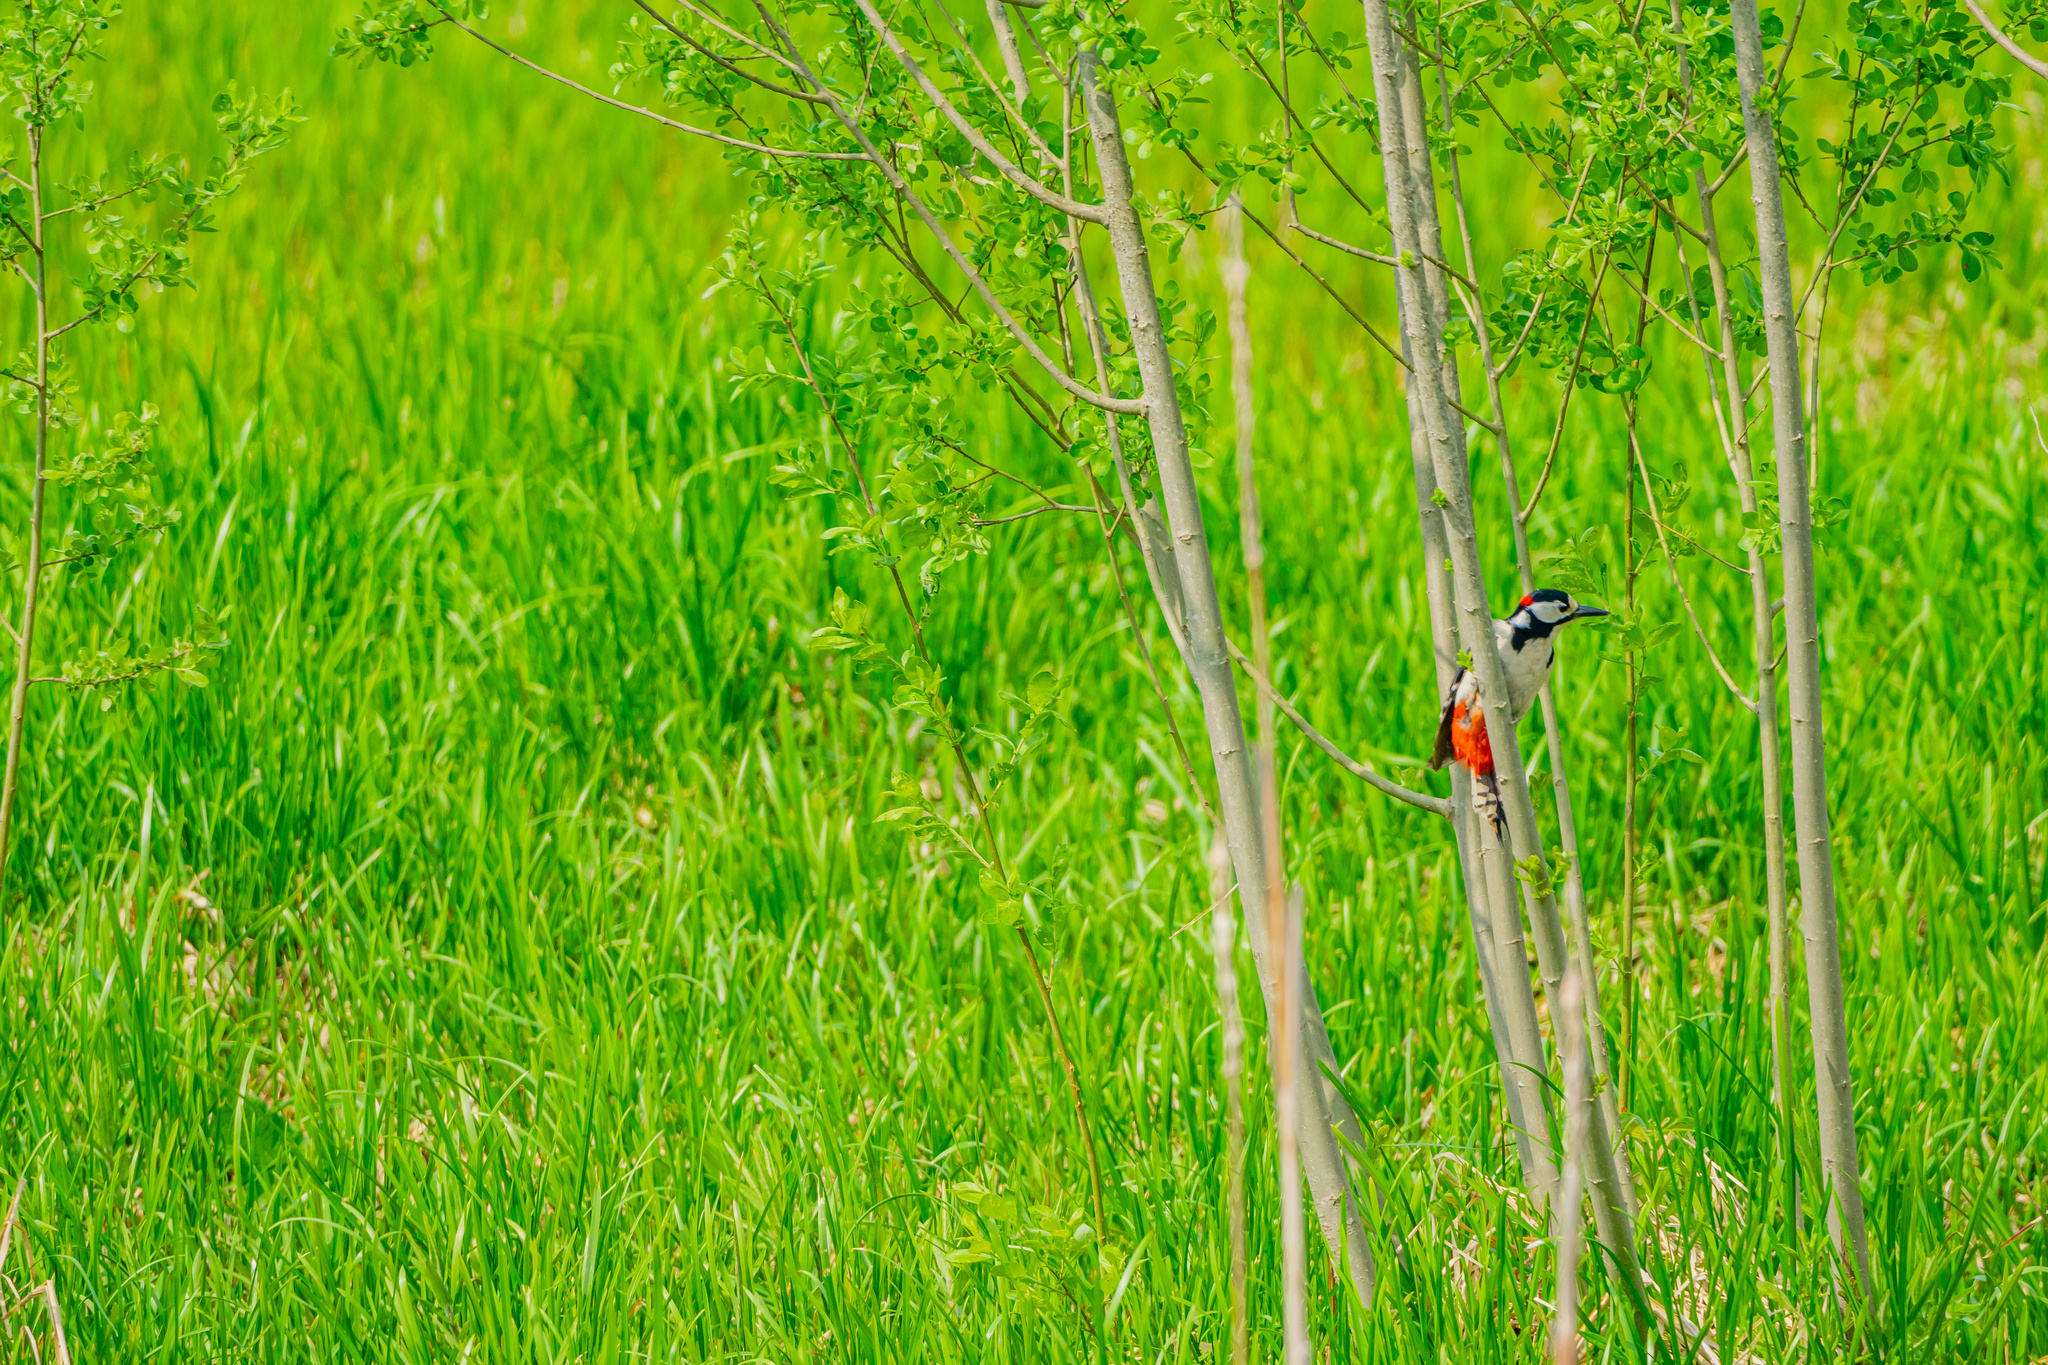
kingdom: Animalia
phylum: Chordata
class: Aves
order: Piciformes
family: Picidae
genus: Dendrocopos
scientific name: Dendrocopos major
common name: Great spotted woodpecker
